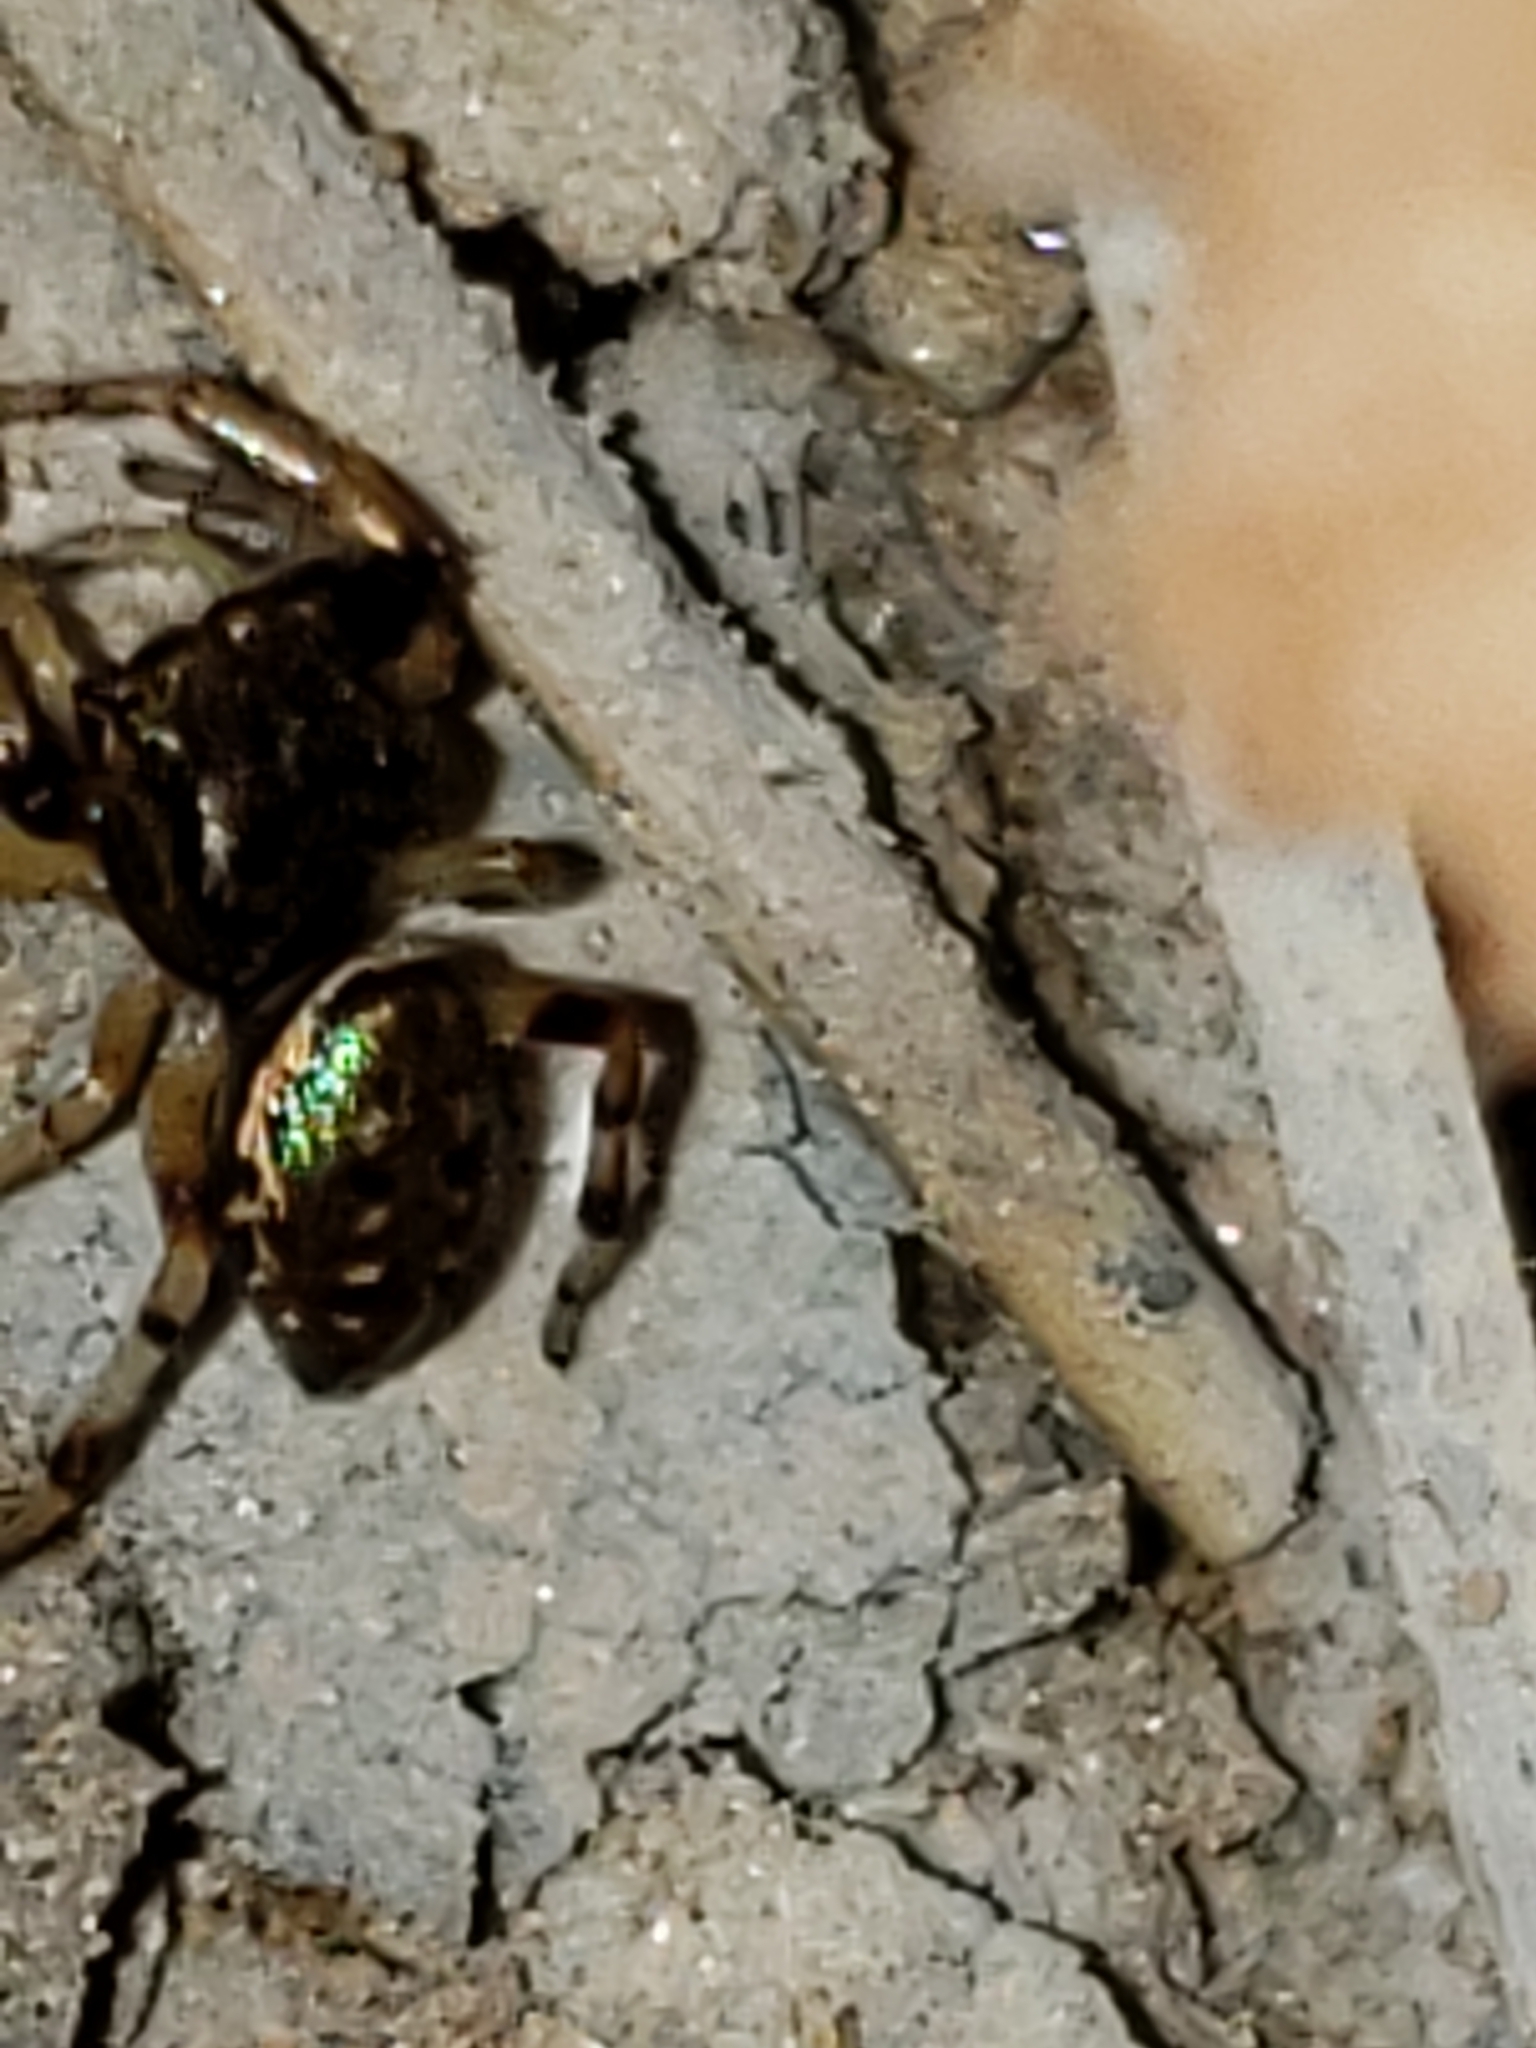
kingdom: Animalia
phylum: Arthropoda
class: Arachnida
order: Araneae
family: Salticidae
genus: Paraphidippus
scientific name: Paraphidippus aurantius
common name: Jumping spiders
